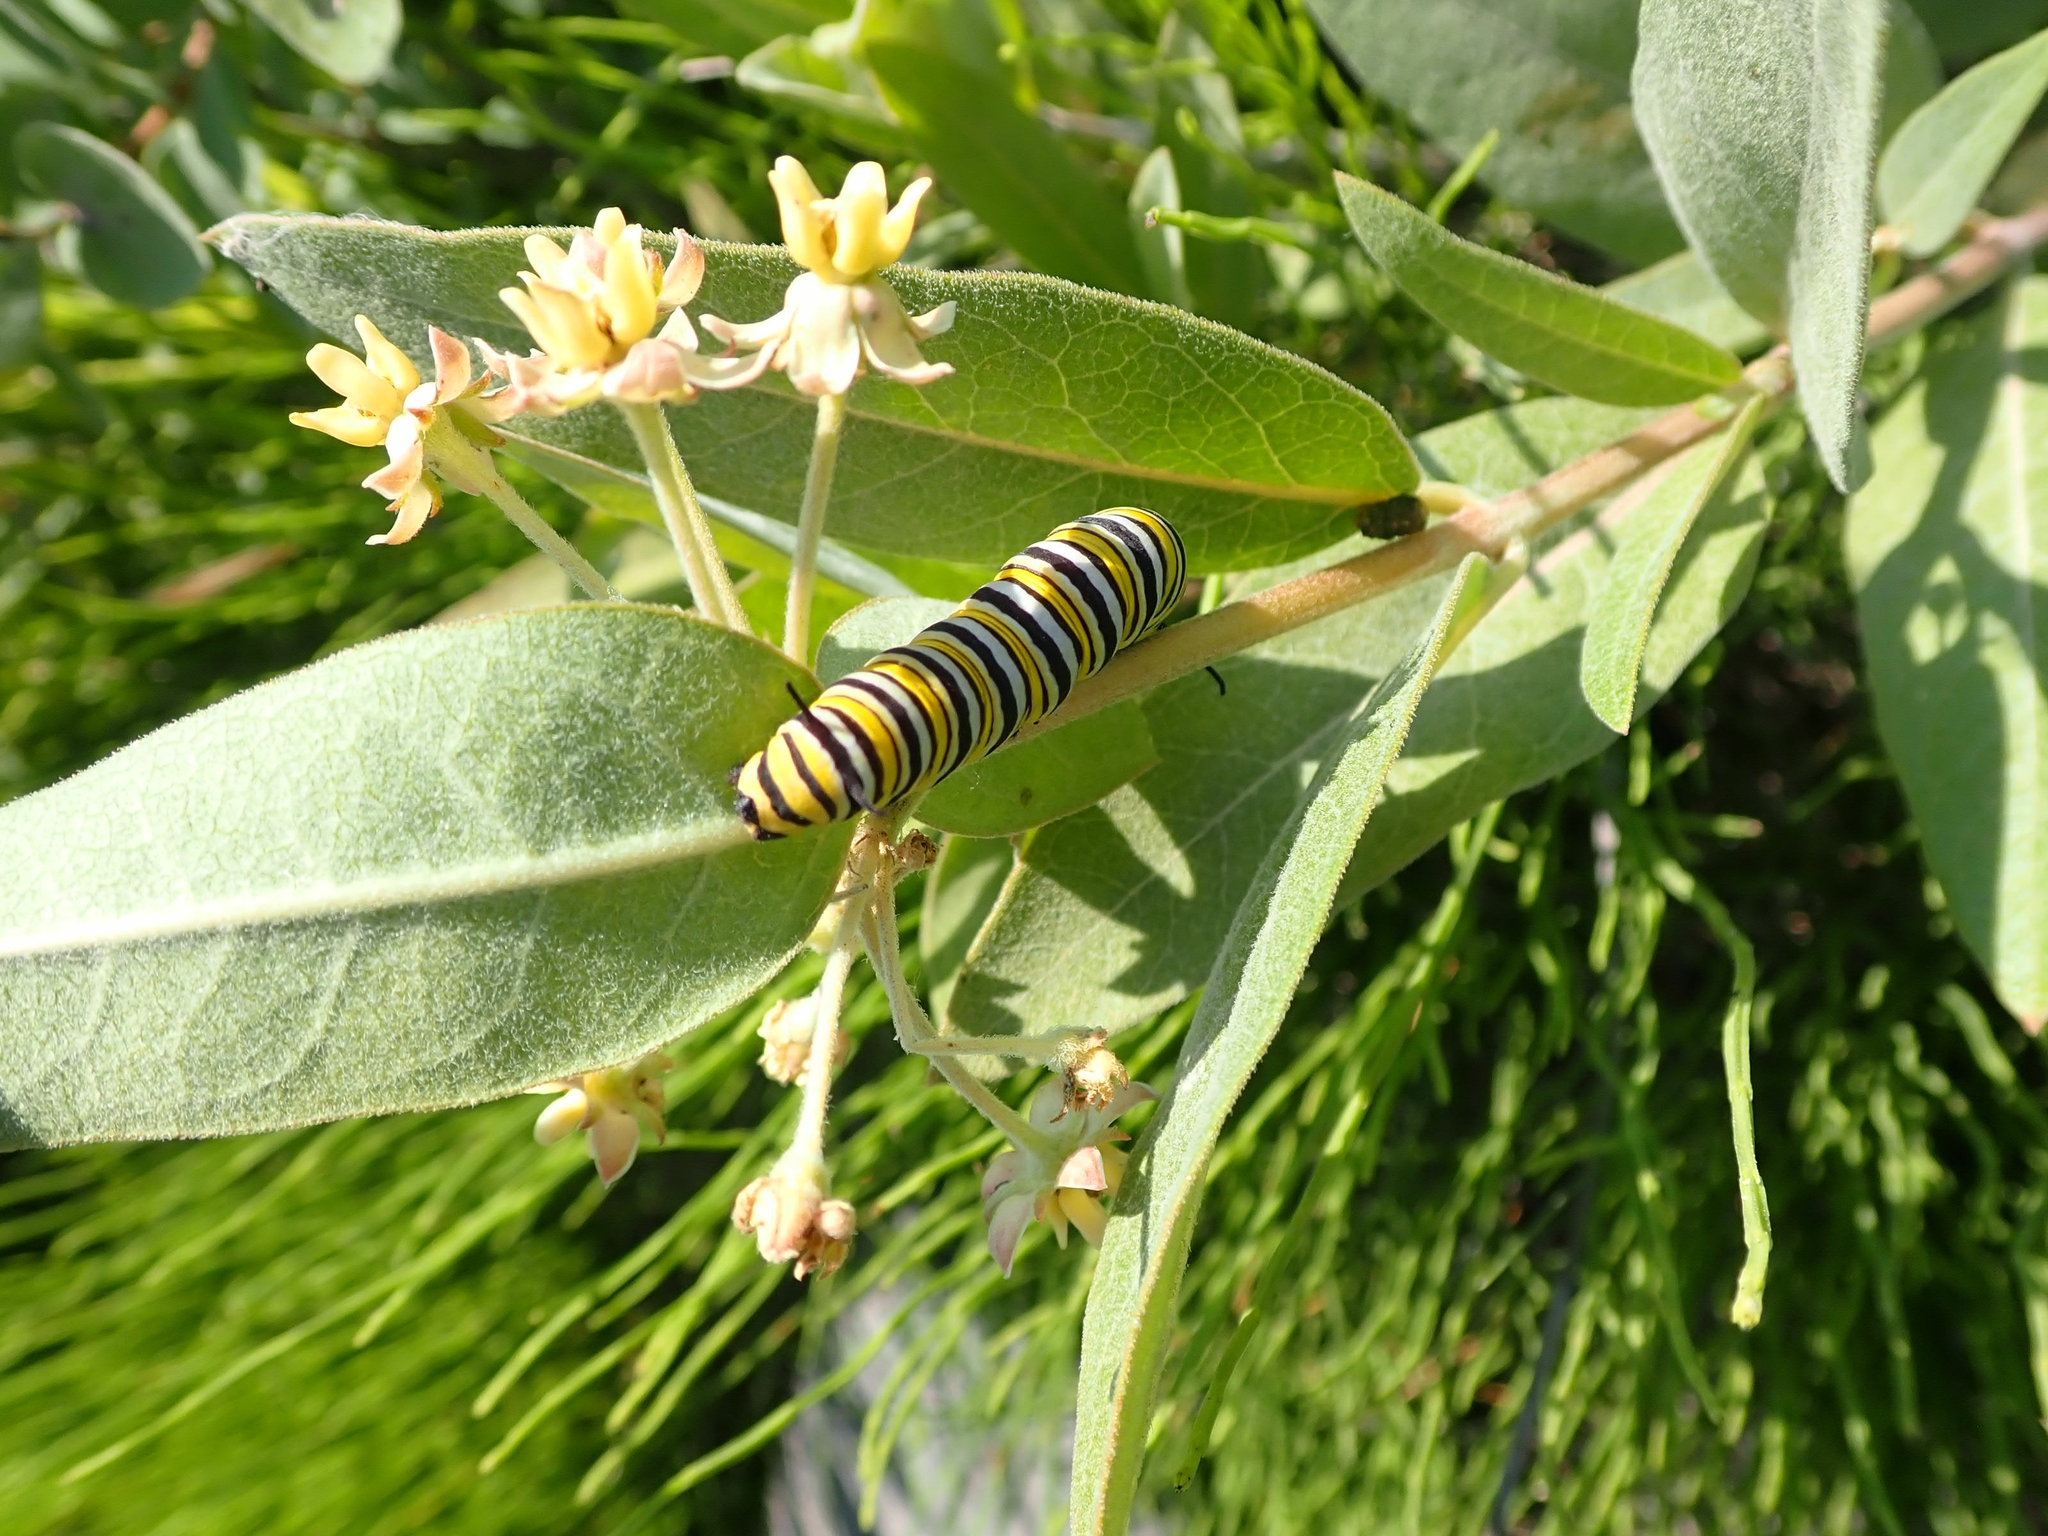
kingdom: Animalia
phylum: Arthropoda
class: Insecta
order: Lepidoptera
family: Nymphalidae
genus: Danaus
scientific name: Danaus plexippus
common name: Monarch
